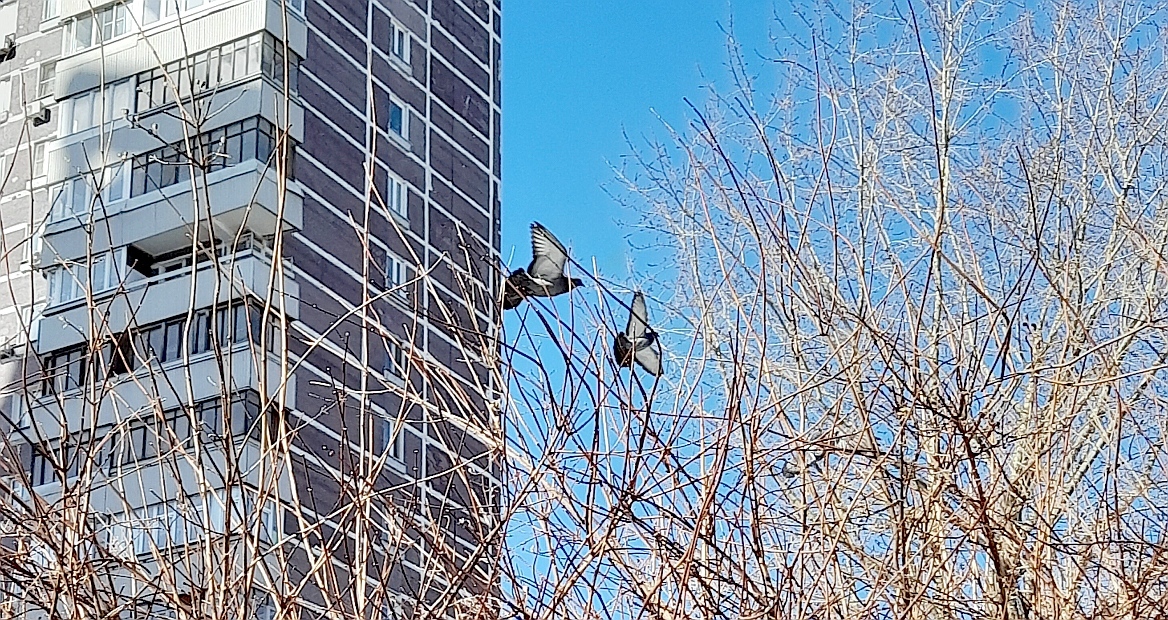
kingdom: Animalia
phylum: Chordata
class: Aves
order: Columbiformes
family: Columbidae
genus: Columba
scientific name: Columba livia
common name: Rock pigeon
